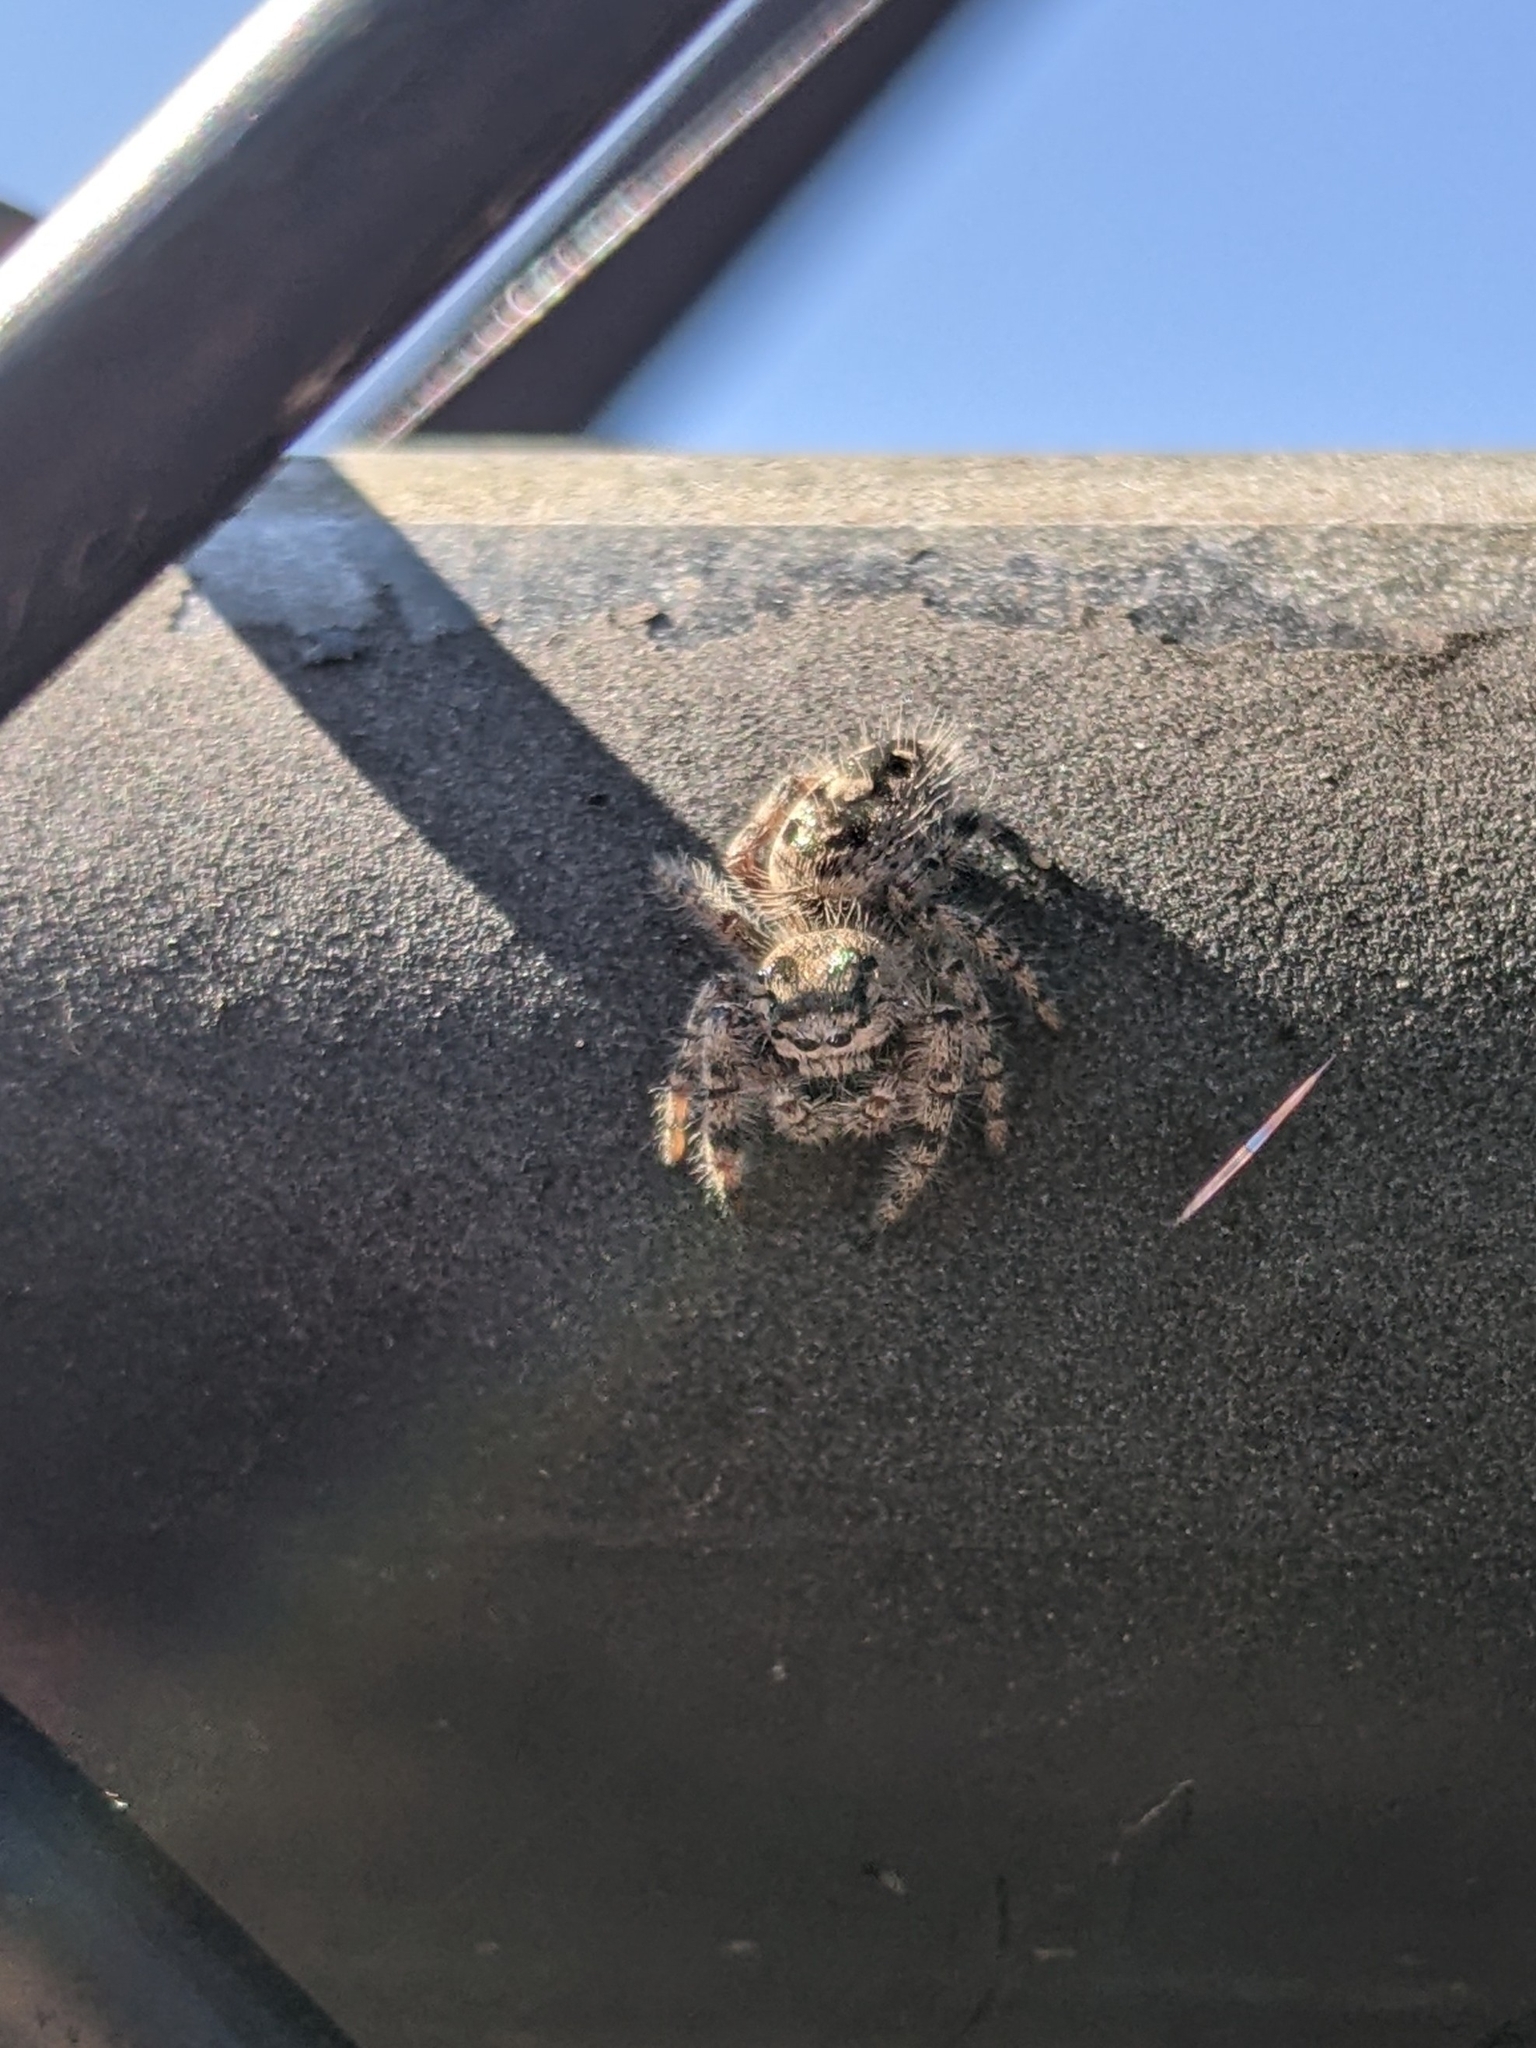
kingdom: Animalia
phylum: Arthropoda
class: Arachnida
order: Araneae
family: Salticidae
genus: Phidippus
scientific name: Phidippus otiosus
